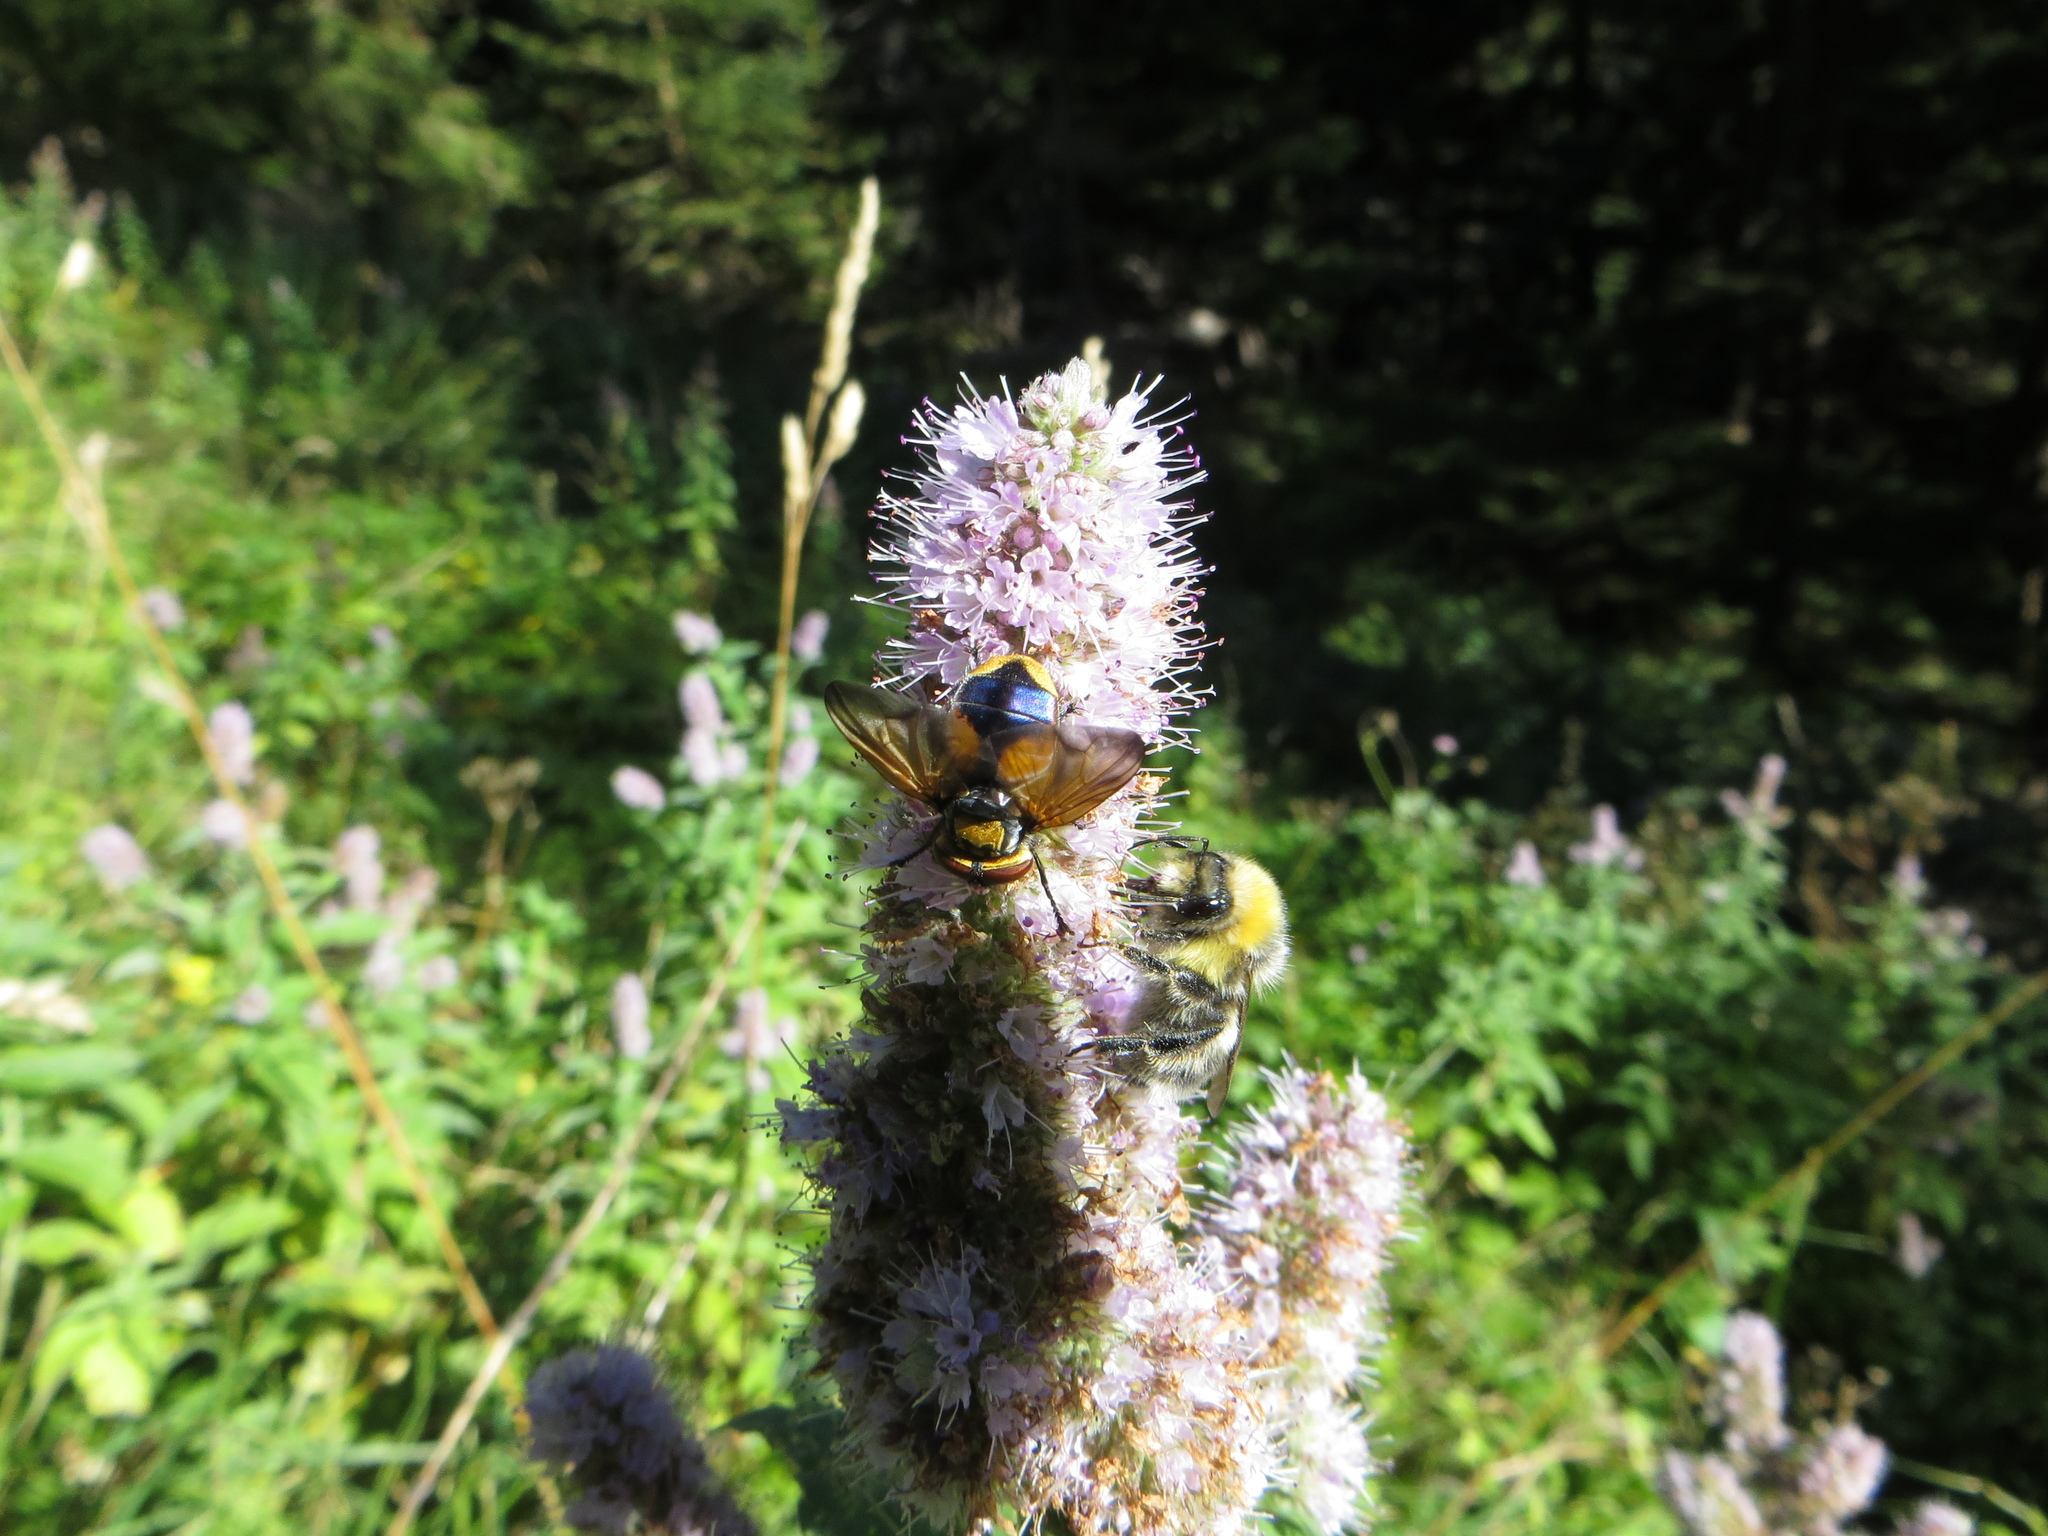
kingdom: Animalia
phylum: Arthropoda
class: Insecta
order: Diptera
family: Tachinidae
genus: Phasia
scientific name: Phasia aurigera
